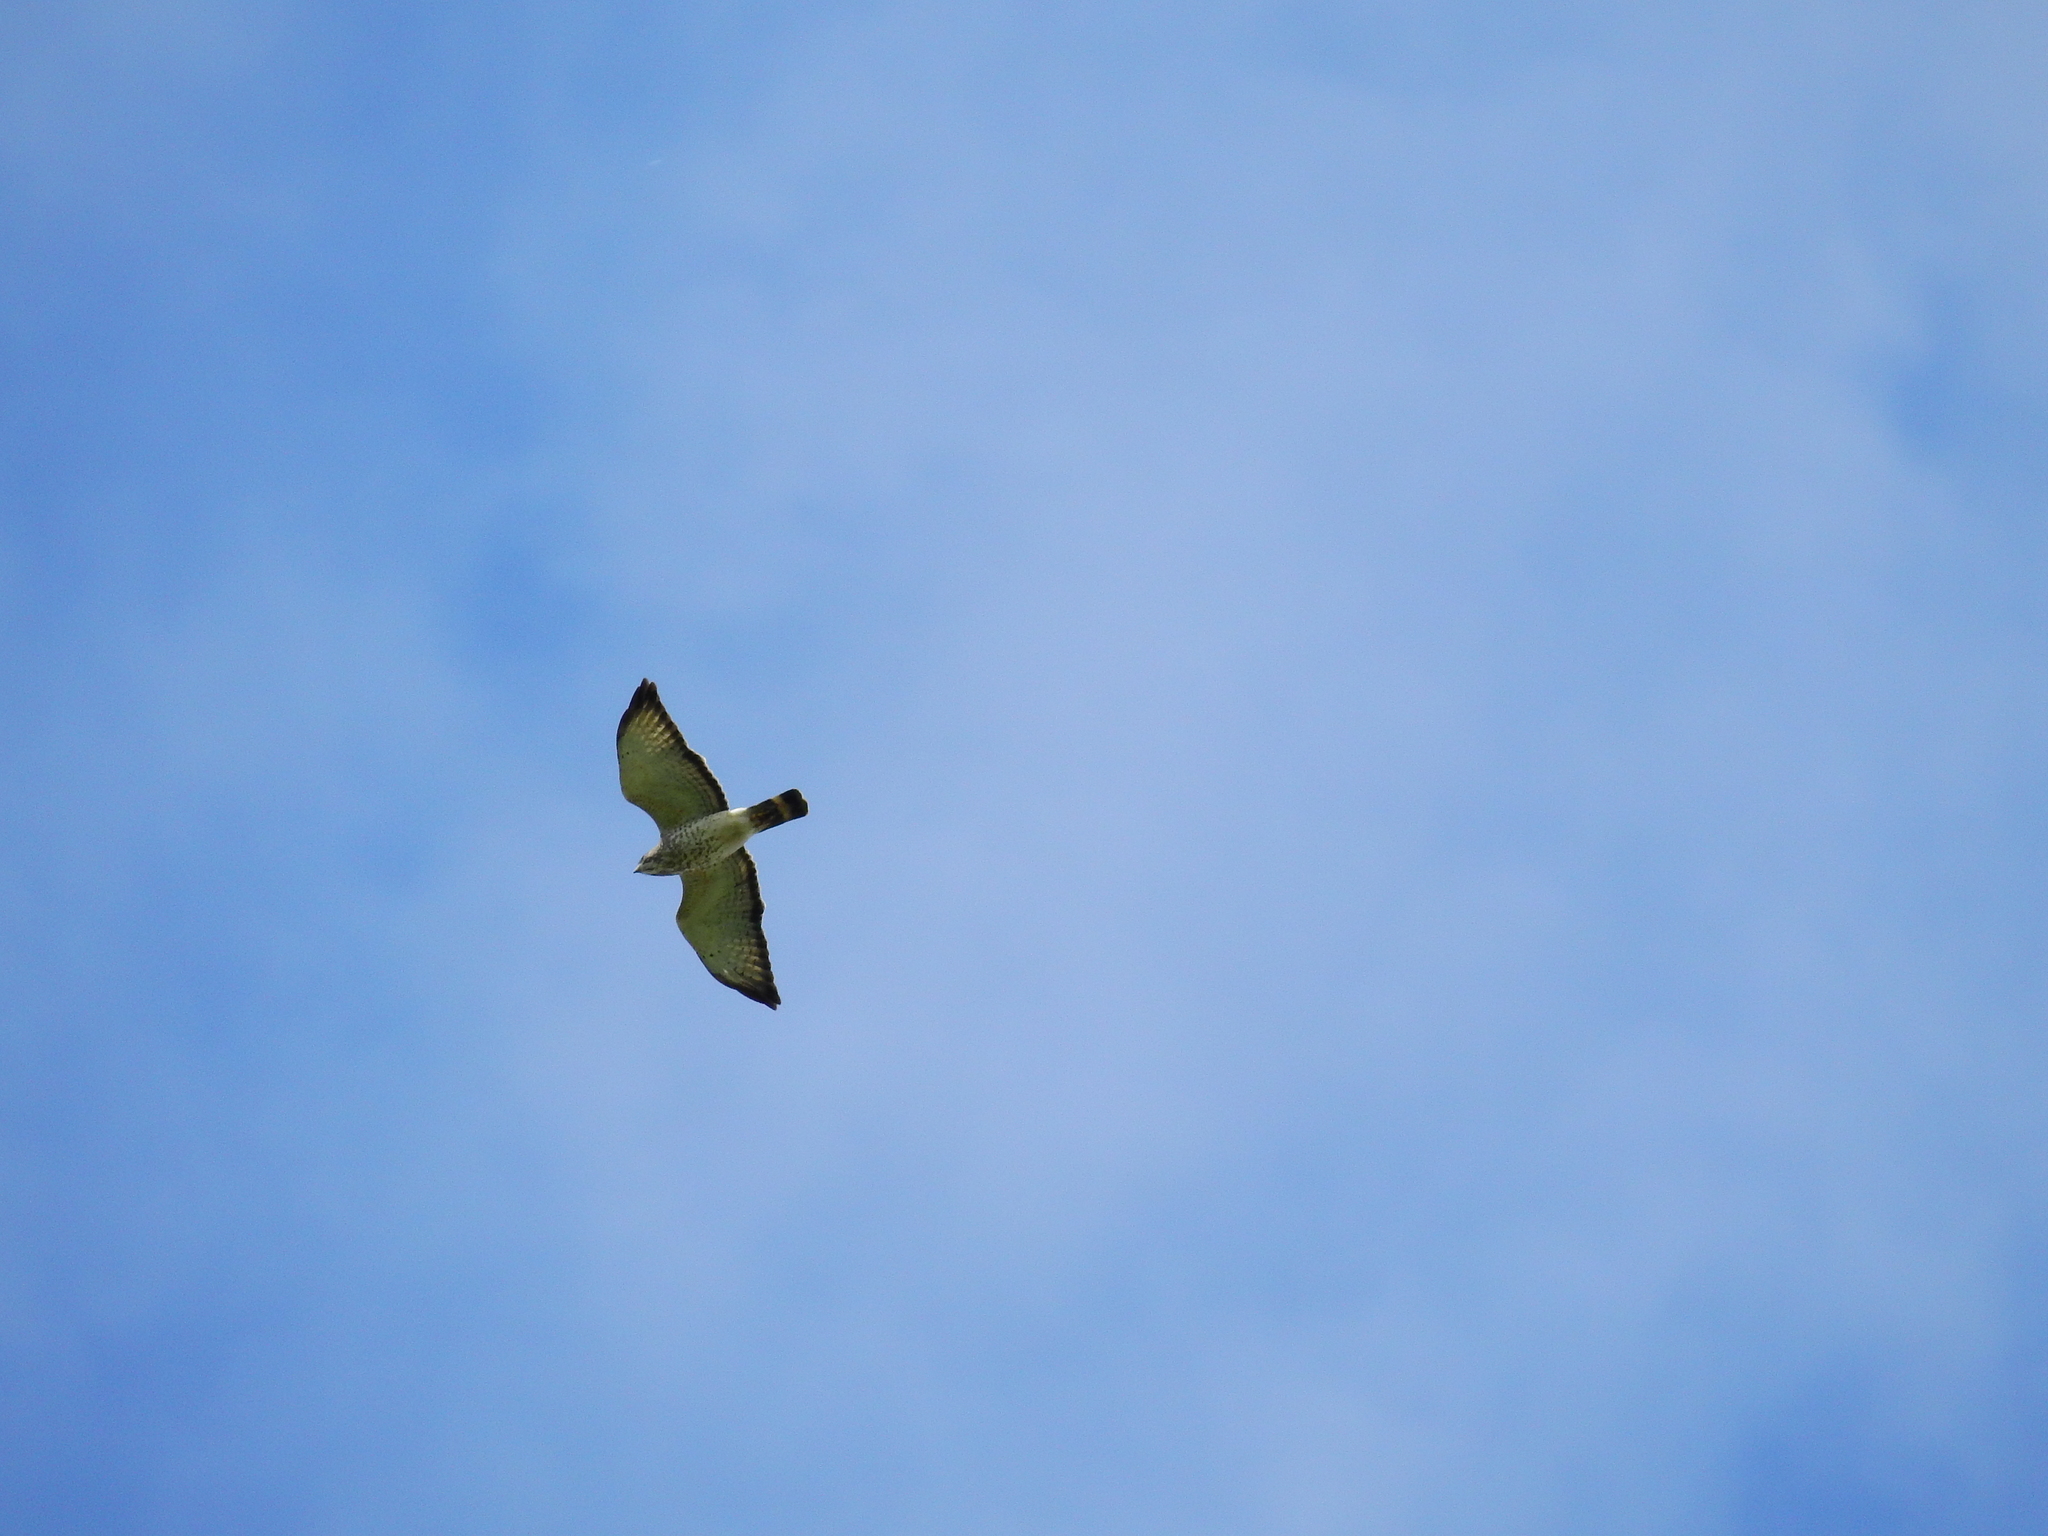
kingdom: Animalia
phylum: Chordata
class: Aves
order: Accipitriformes
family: Accipitridae
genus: Buteo
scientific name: Buteo platypterus
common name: Broad-winged hawk
